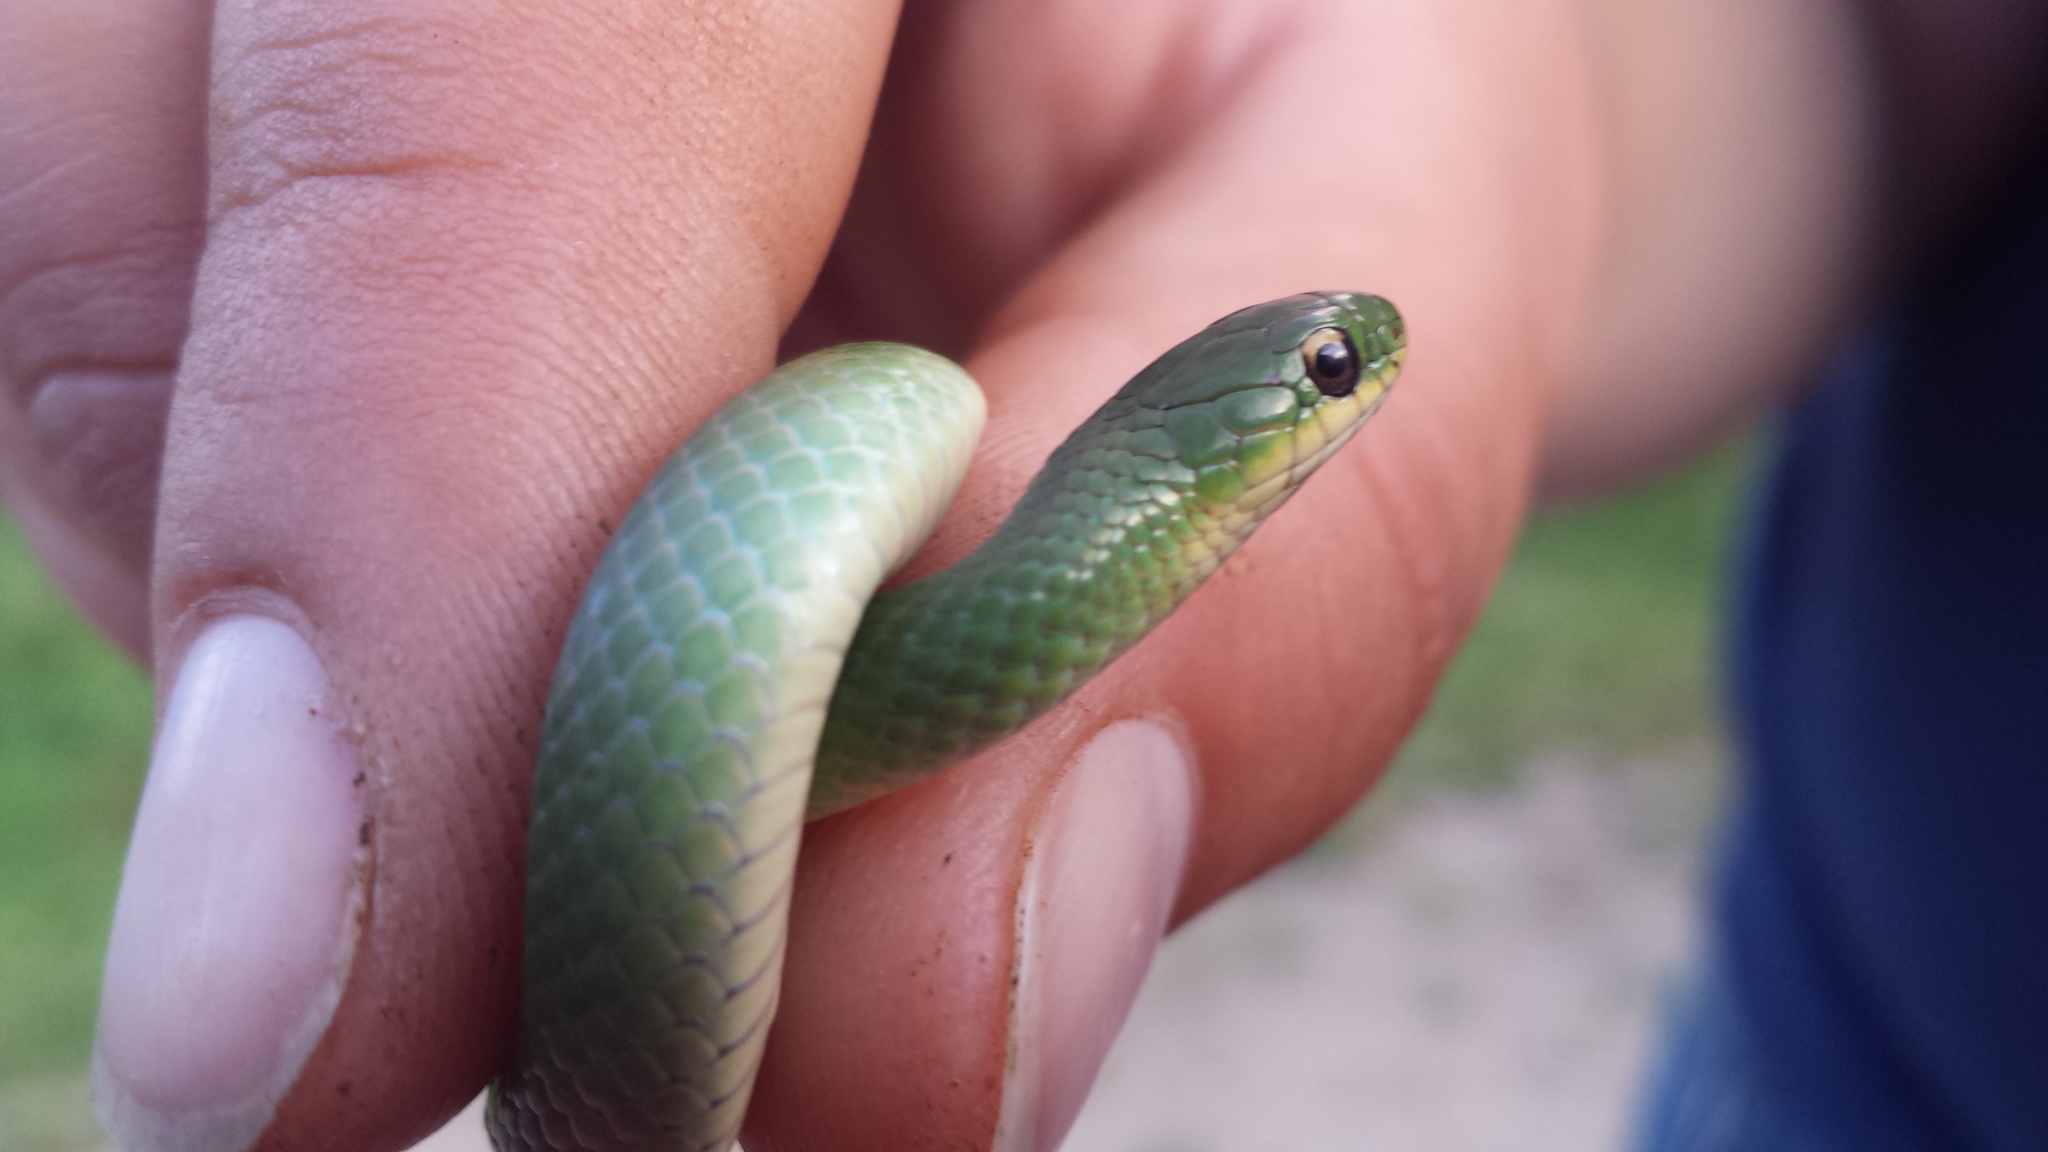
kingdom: Animalia
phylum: Chordata
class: Squamata
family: Colubridae
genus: Opheodrys
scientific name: Opheodrys vernalis
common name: Smooth green snake
